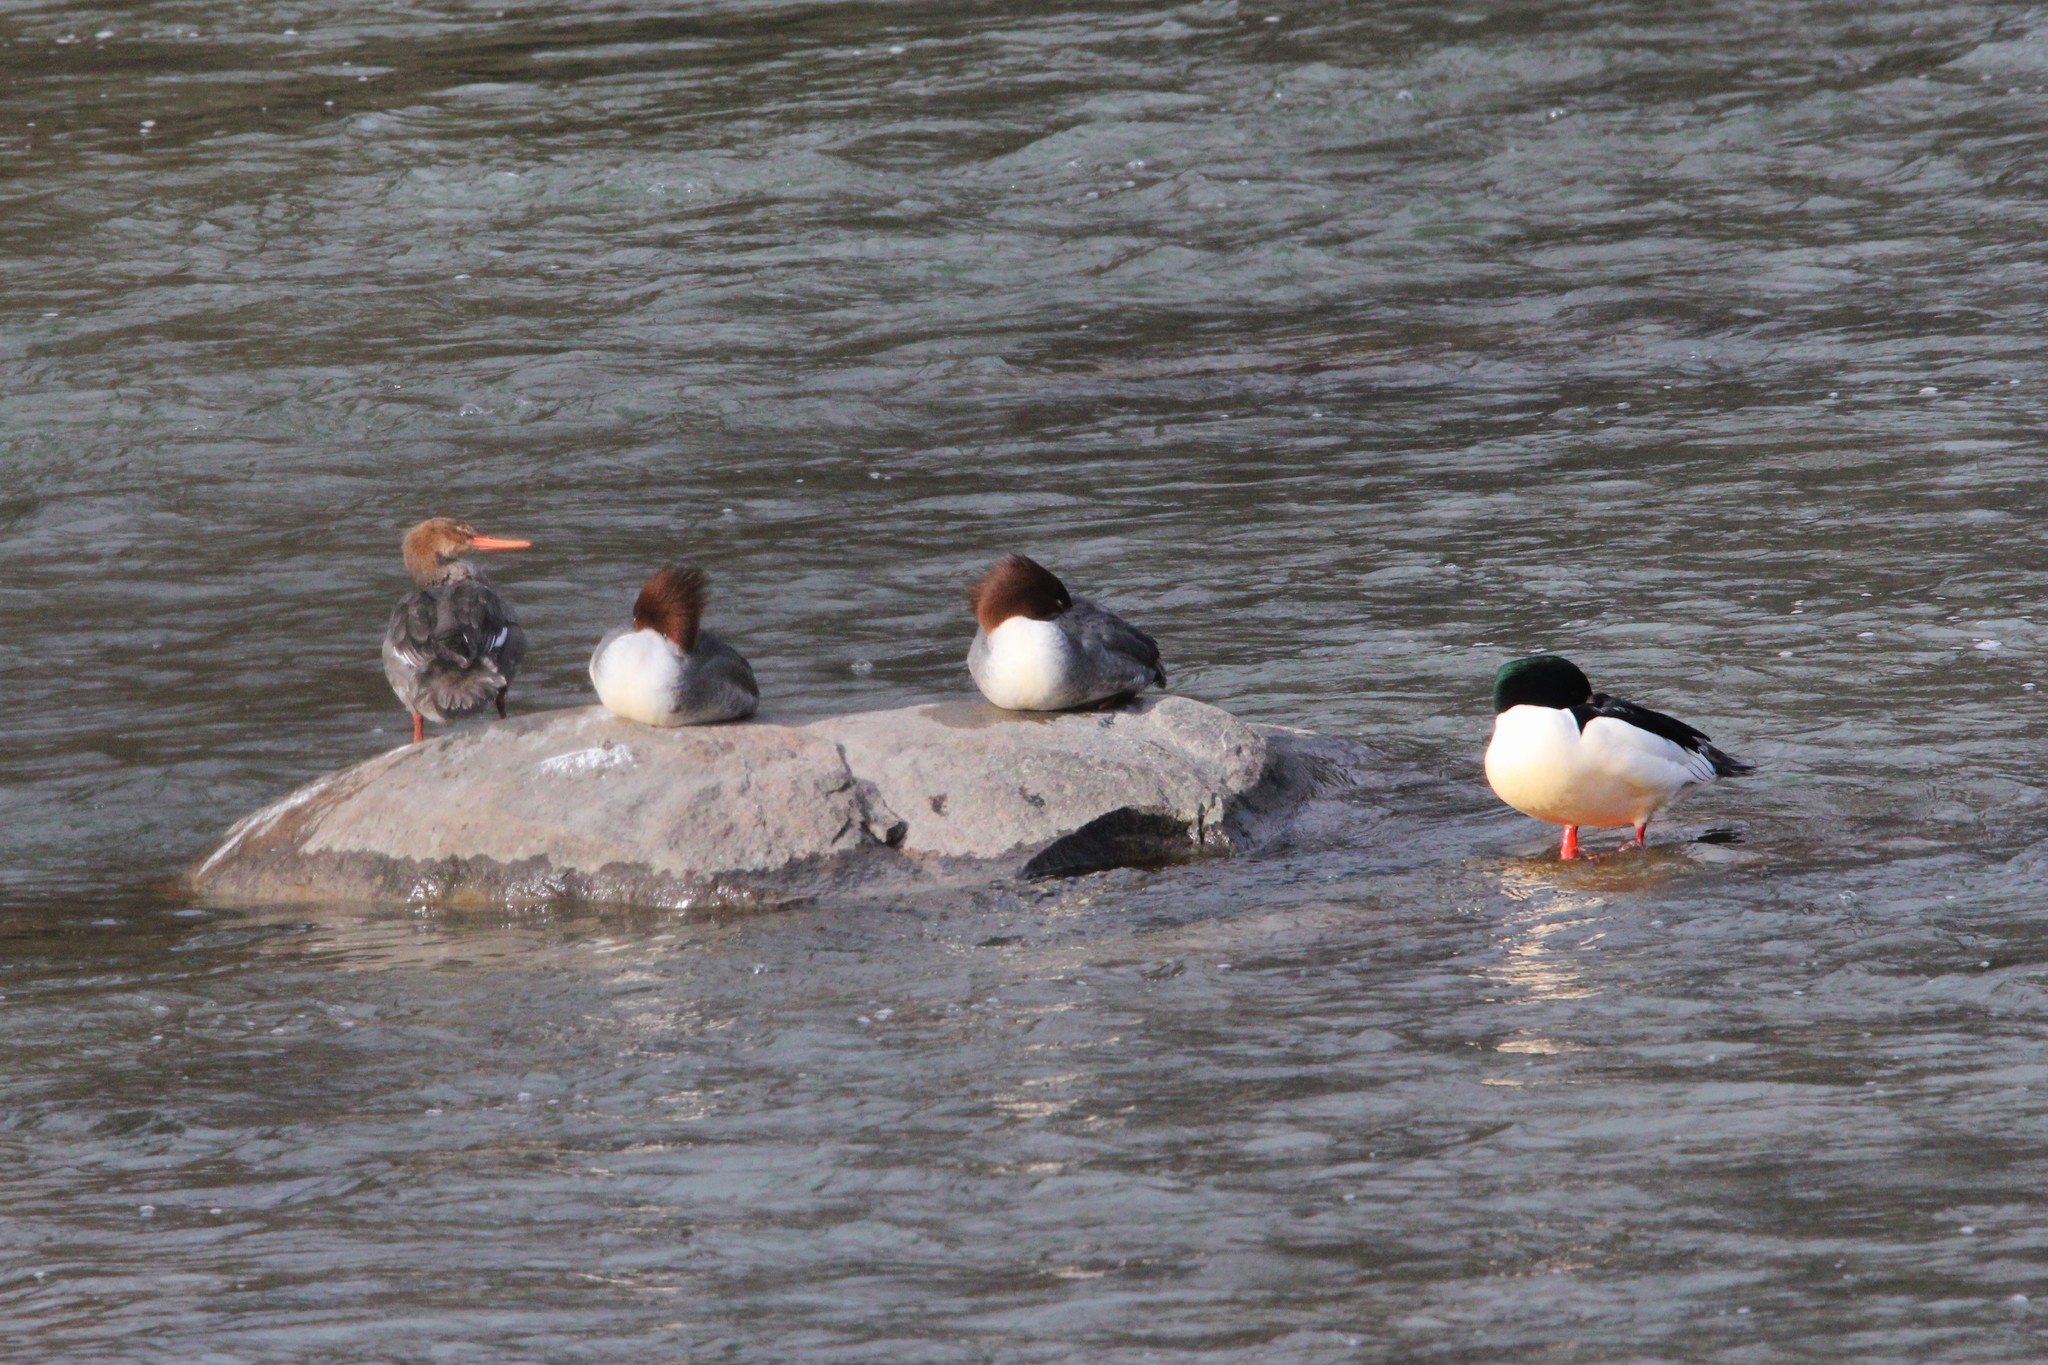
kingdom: Animalia
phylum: Chordata
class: Aves
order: Anseriformes
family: Anatidae
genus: Mergus
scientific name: Mergus serrator
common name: Red-breasted merganser
